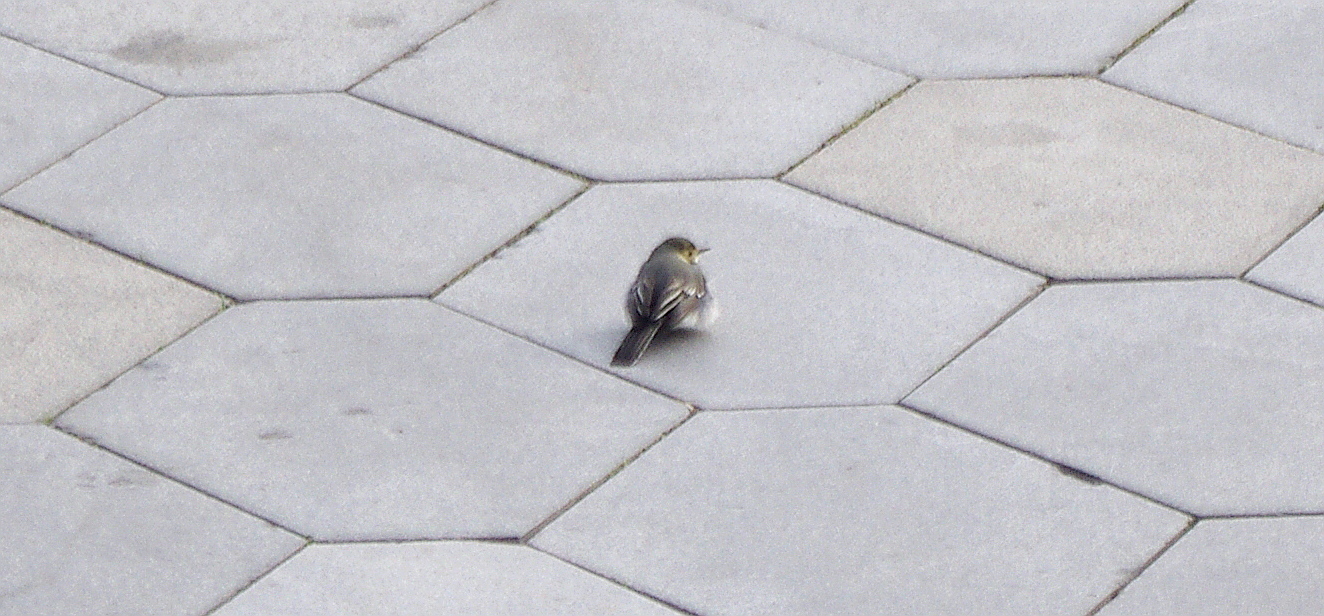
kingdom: Animalia
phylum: Chordata
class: Aves
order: Passeriformes
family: Motacillidae
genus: Motacilla
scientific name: Motacilla alba
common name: White wagtail
